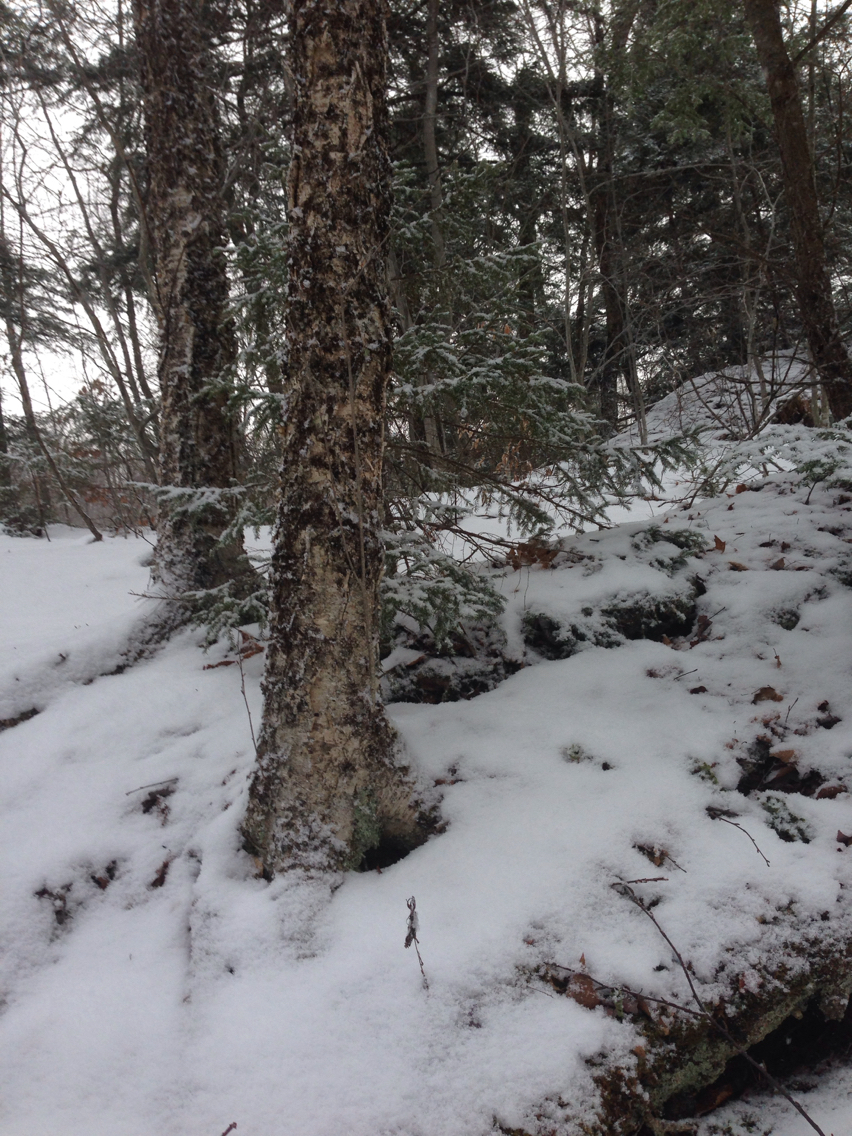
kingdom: Plantae
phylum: Tracheophyta
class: Magnoliopsida
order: Fagales
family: Betulaceae
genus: Betula
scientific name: Betula alleghaniensis
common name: Yellow birch
